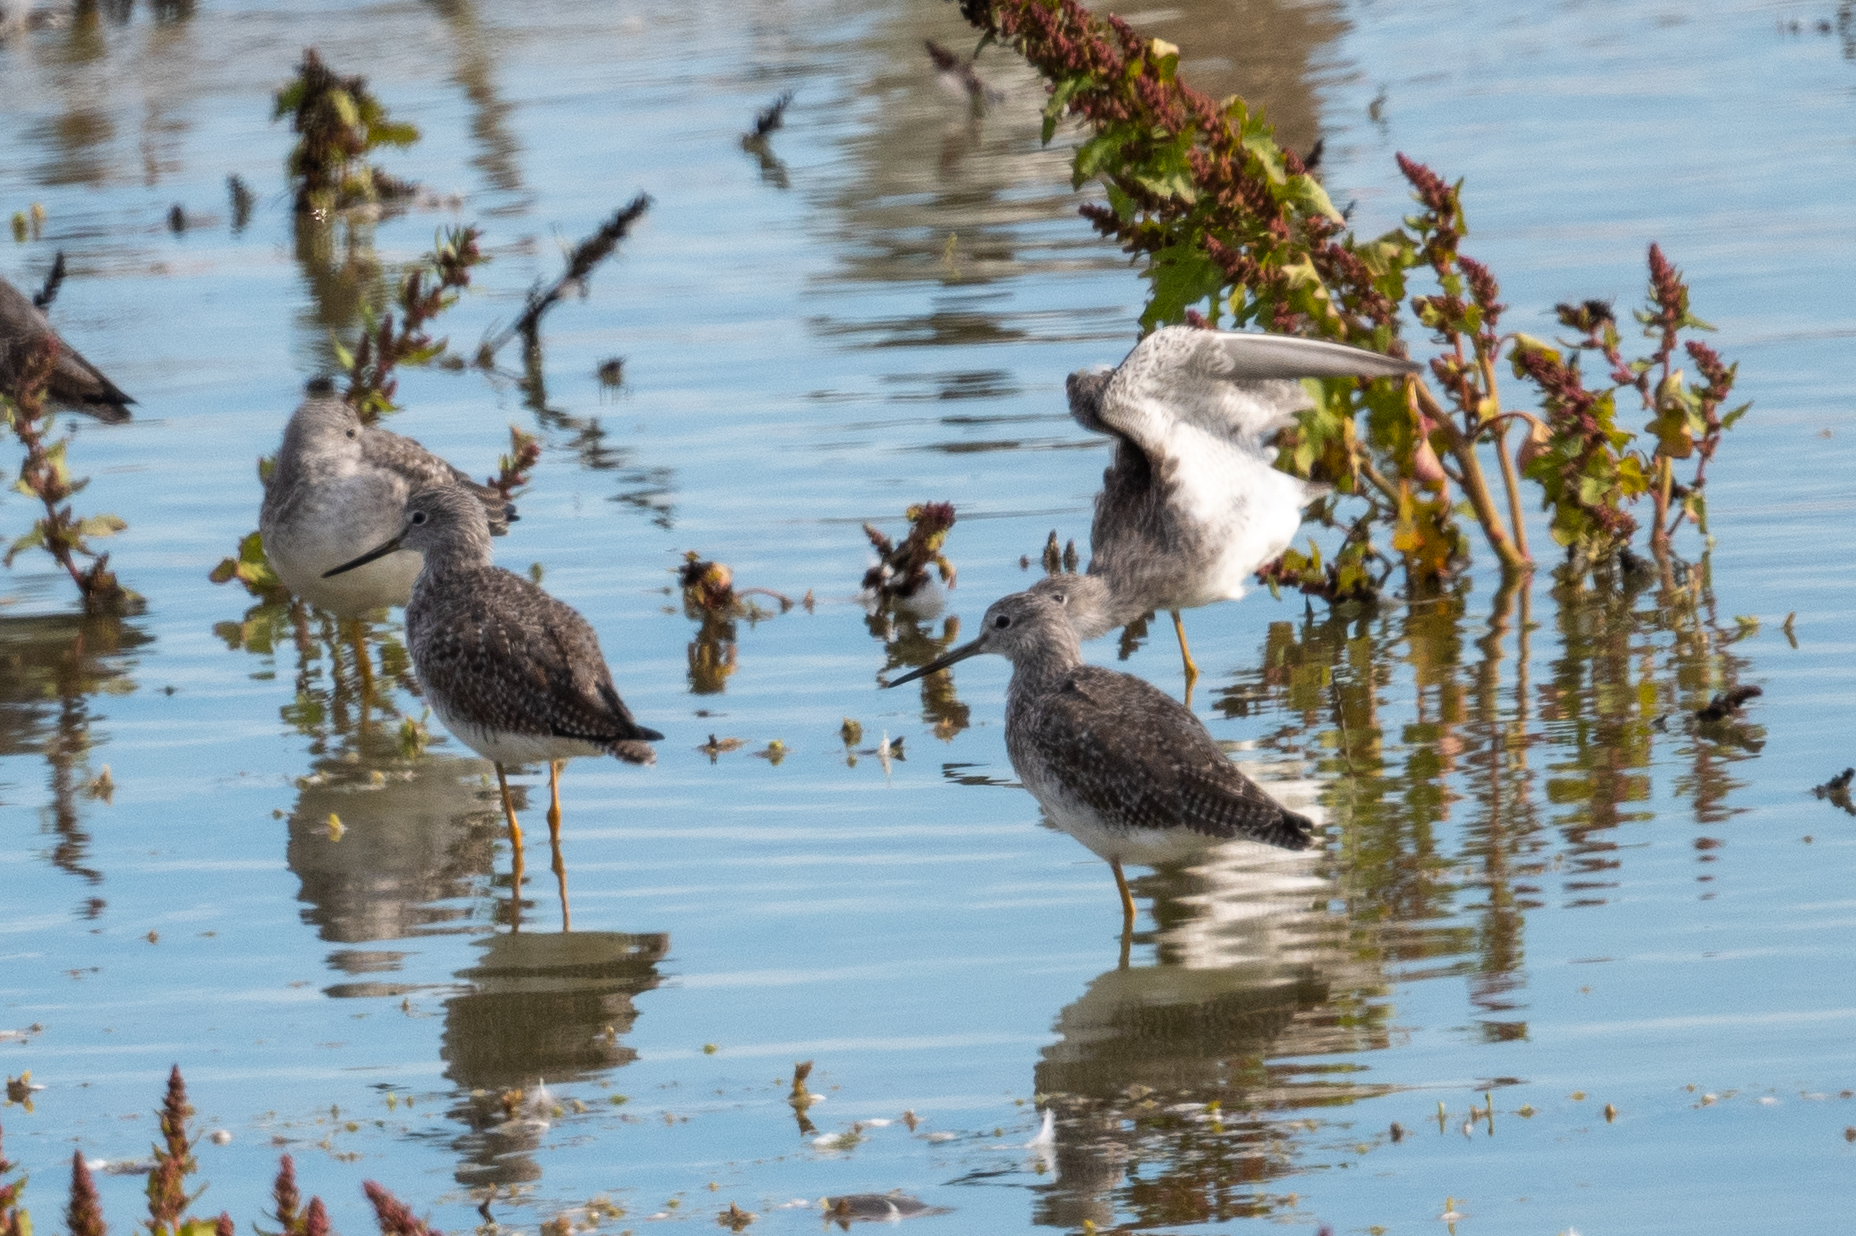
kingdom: Animalia
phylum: Chordata
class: Aves
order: Charadriiformes
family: Scolopacidae
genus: Tringa
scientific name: Tringa melanoleuca
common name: Greater yellowlegs
